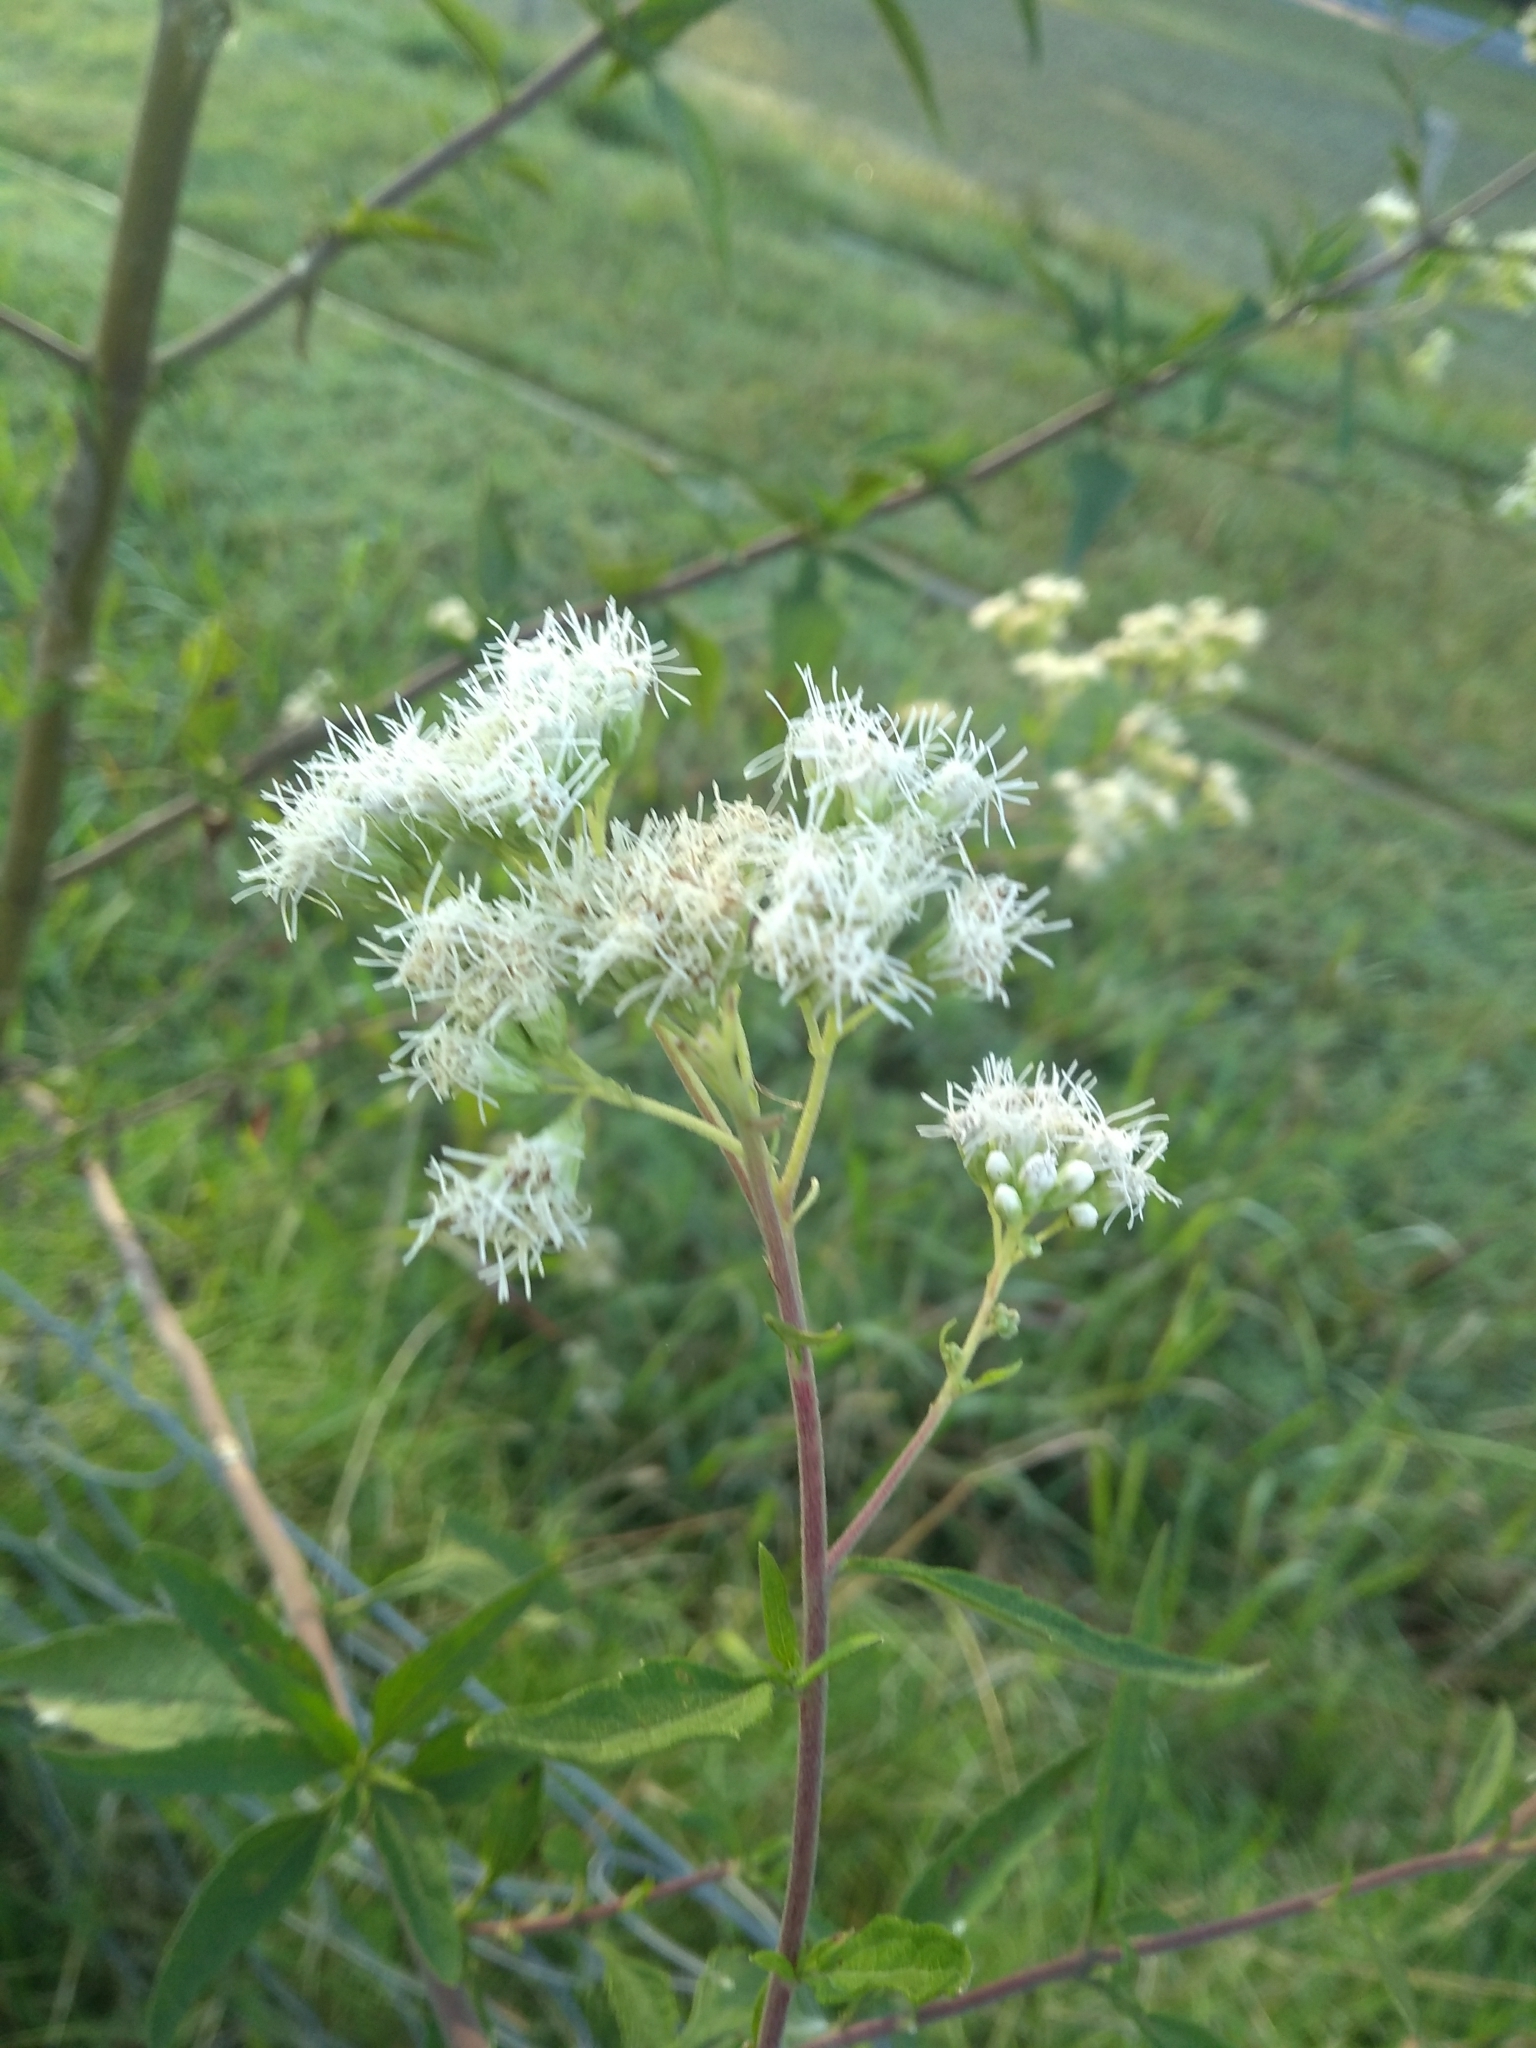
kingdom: Plantae
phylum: Tracheophyta
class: Magnoliopsida
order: Asterales
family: Asteraceae
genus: Austroeupatorium
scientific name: Austroeupatorium inulifolium
